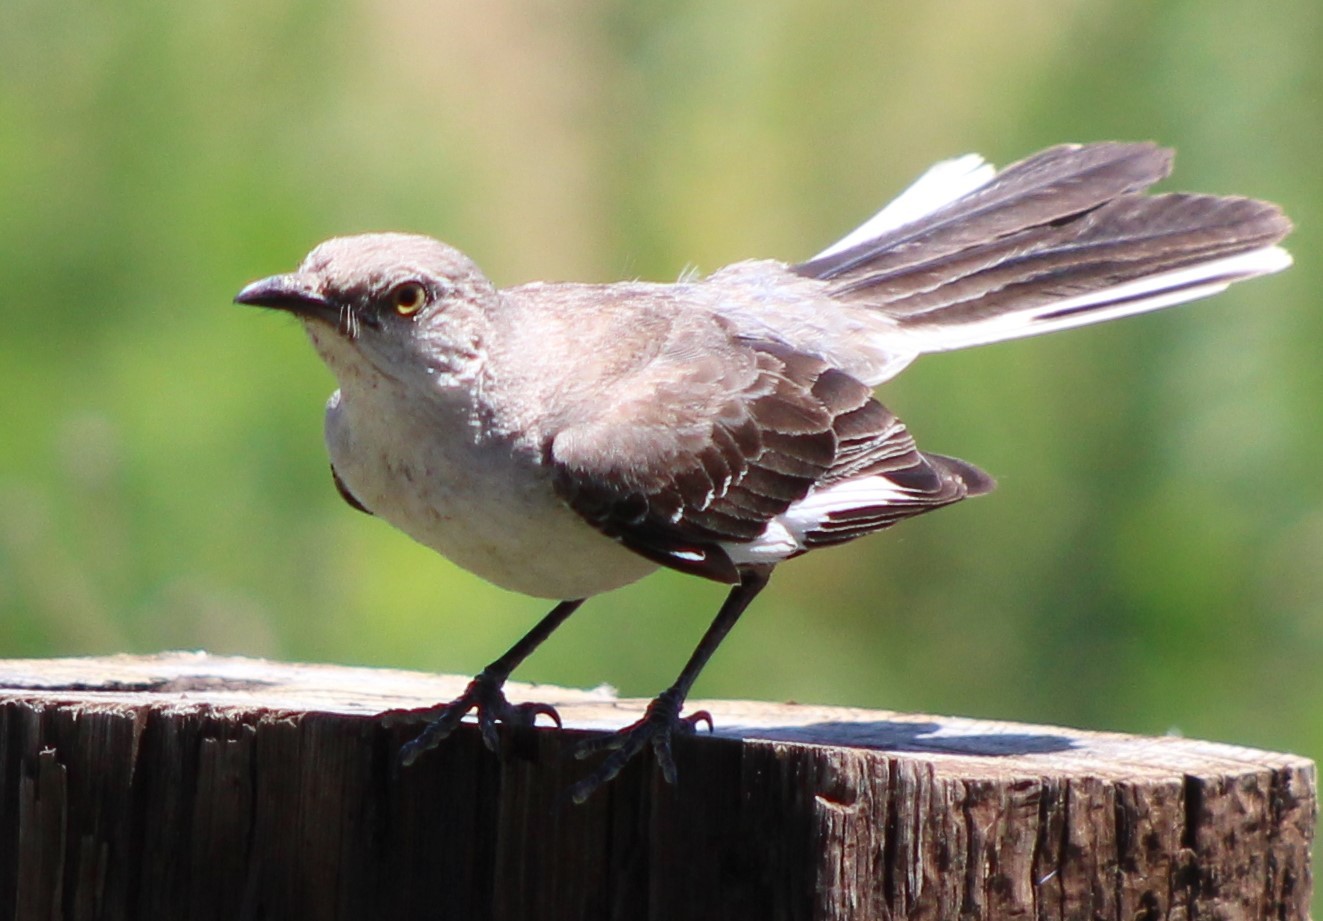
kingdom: Animalia
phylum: Chordata
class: Aves
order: Passeriformes
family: Mimidae
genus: Mimus
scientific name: Mimus polyglottos
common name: Northern mockingbird
